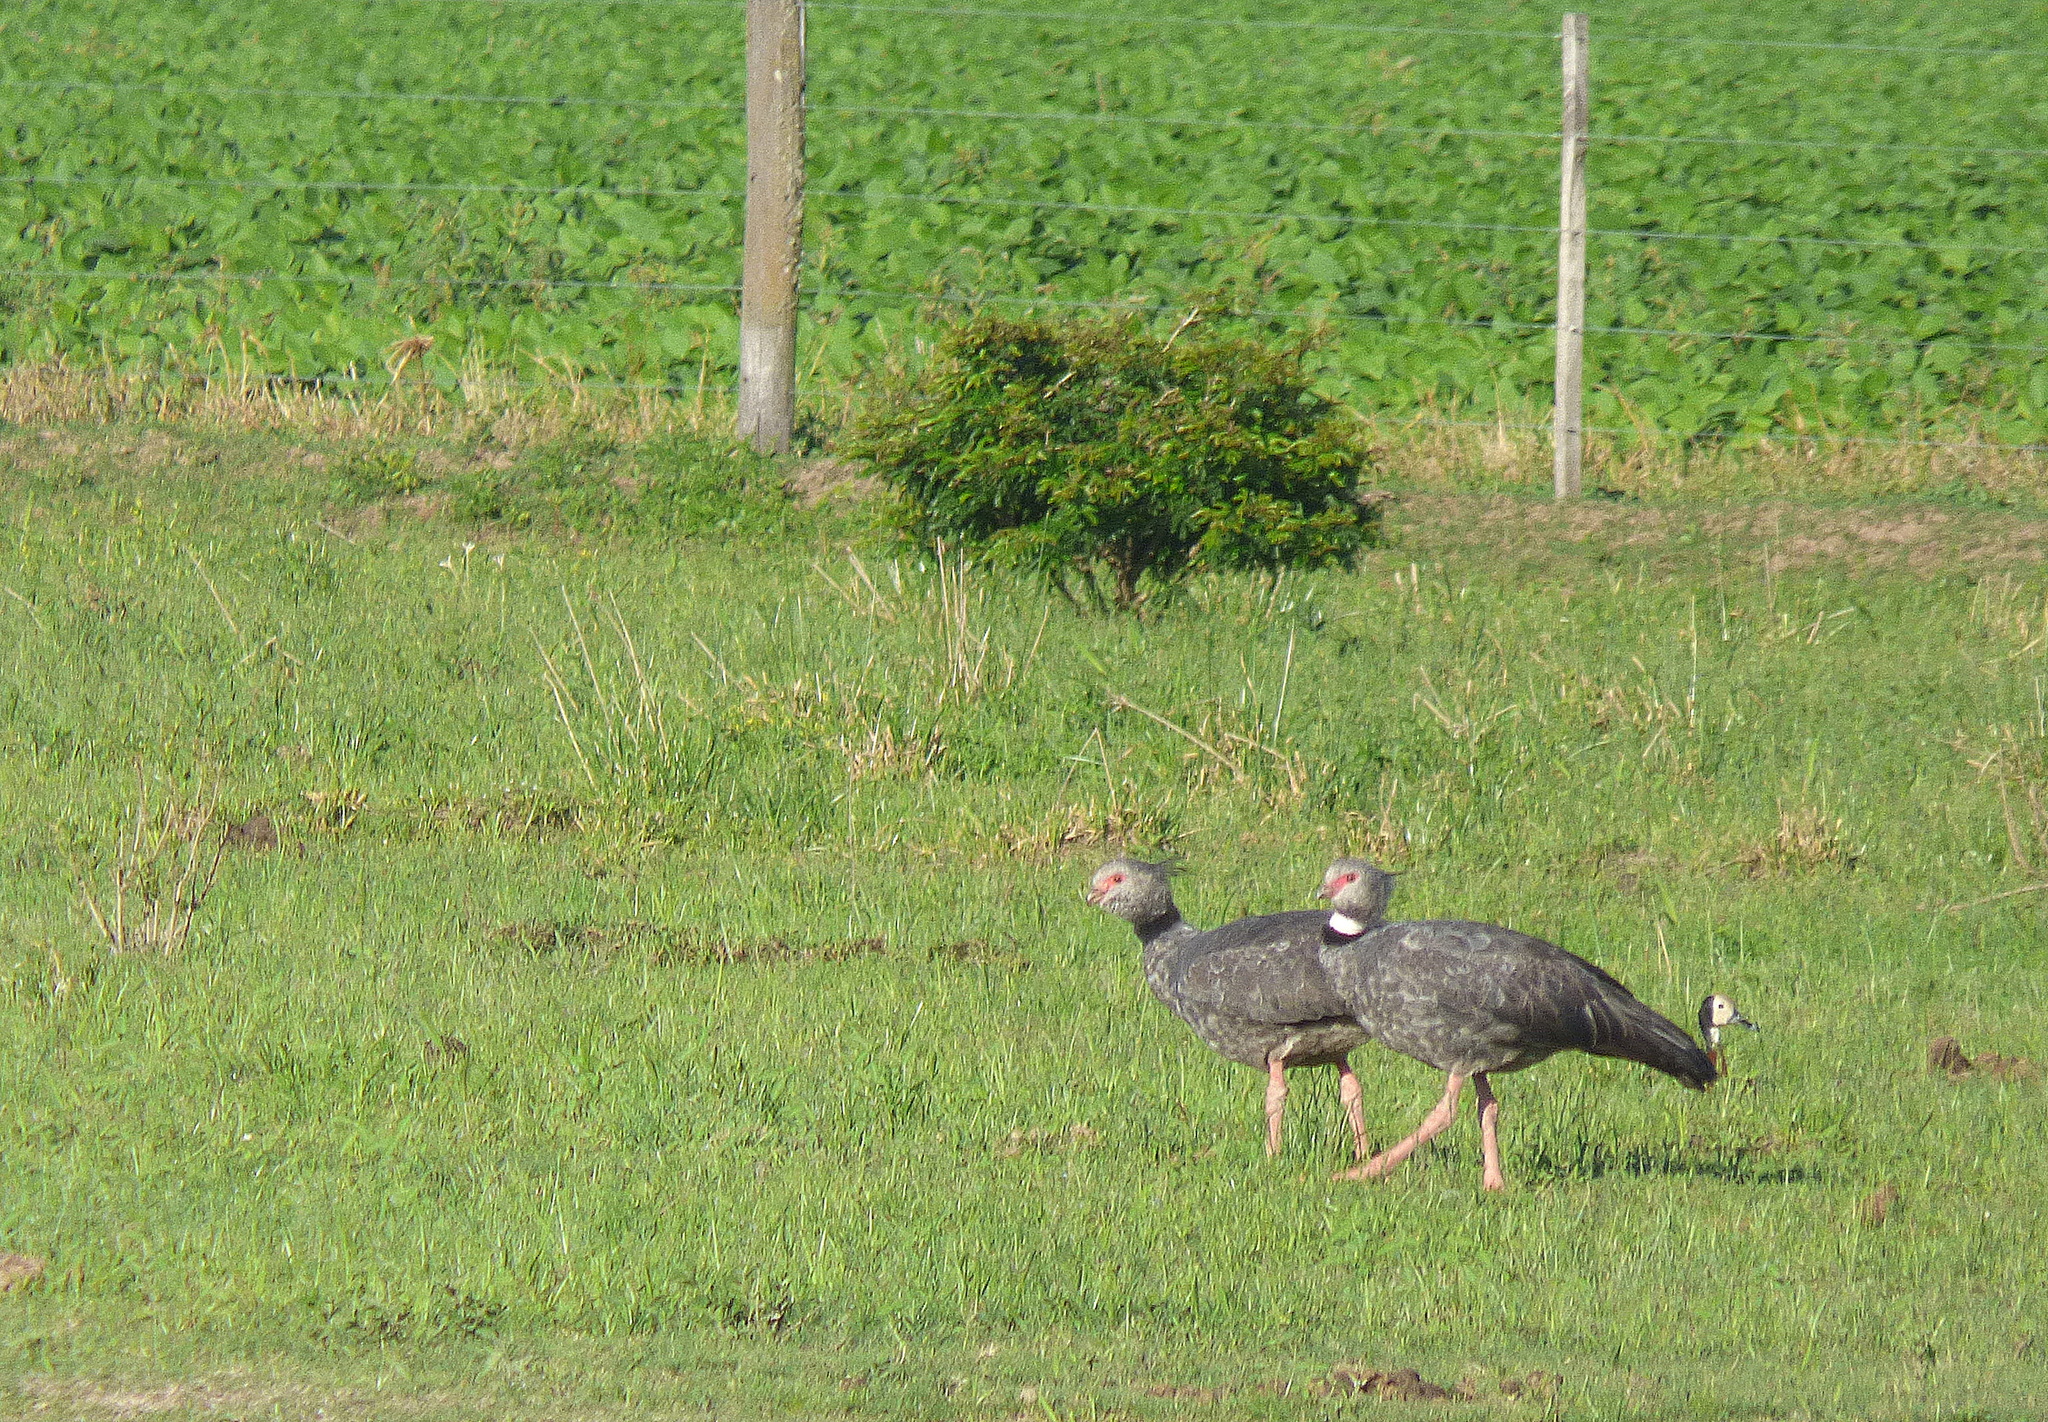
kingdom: Animalia
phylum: Chordata
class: Aves
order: Anseriformes
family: Anhimidae
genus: Chauna
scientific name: Chauna torquata
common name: Southern screamer
